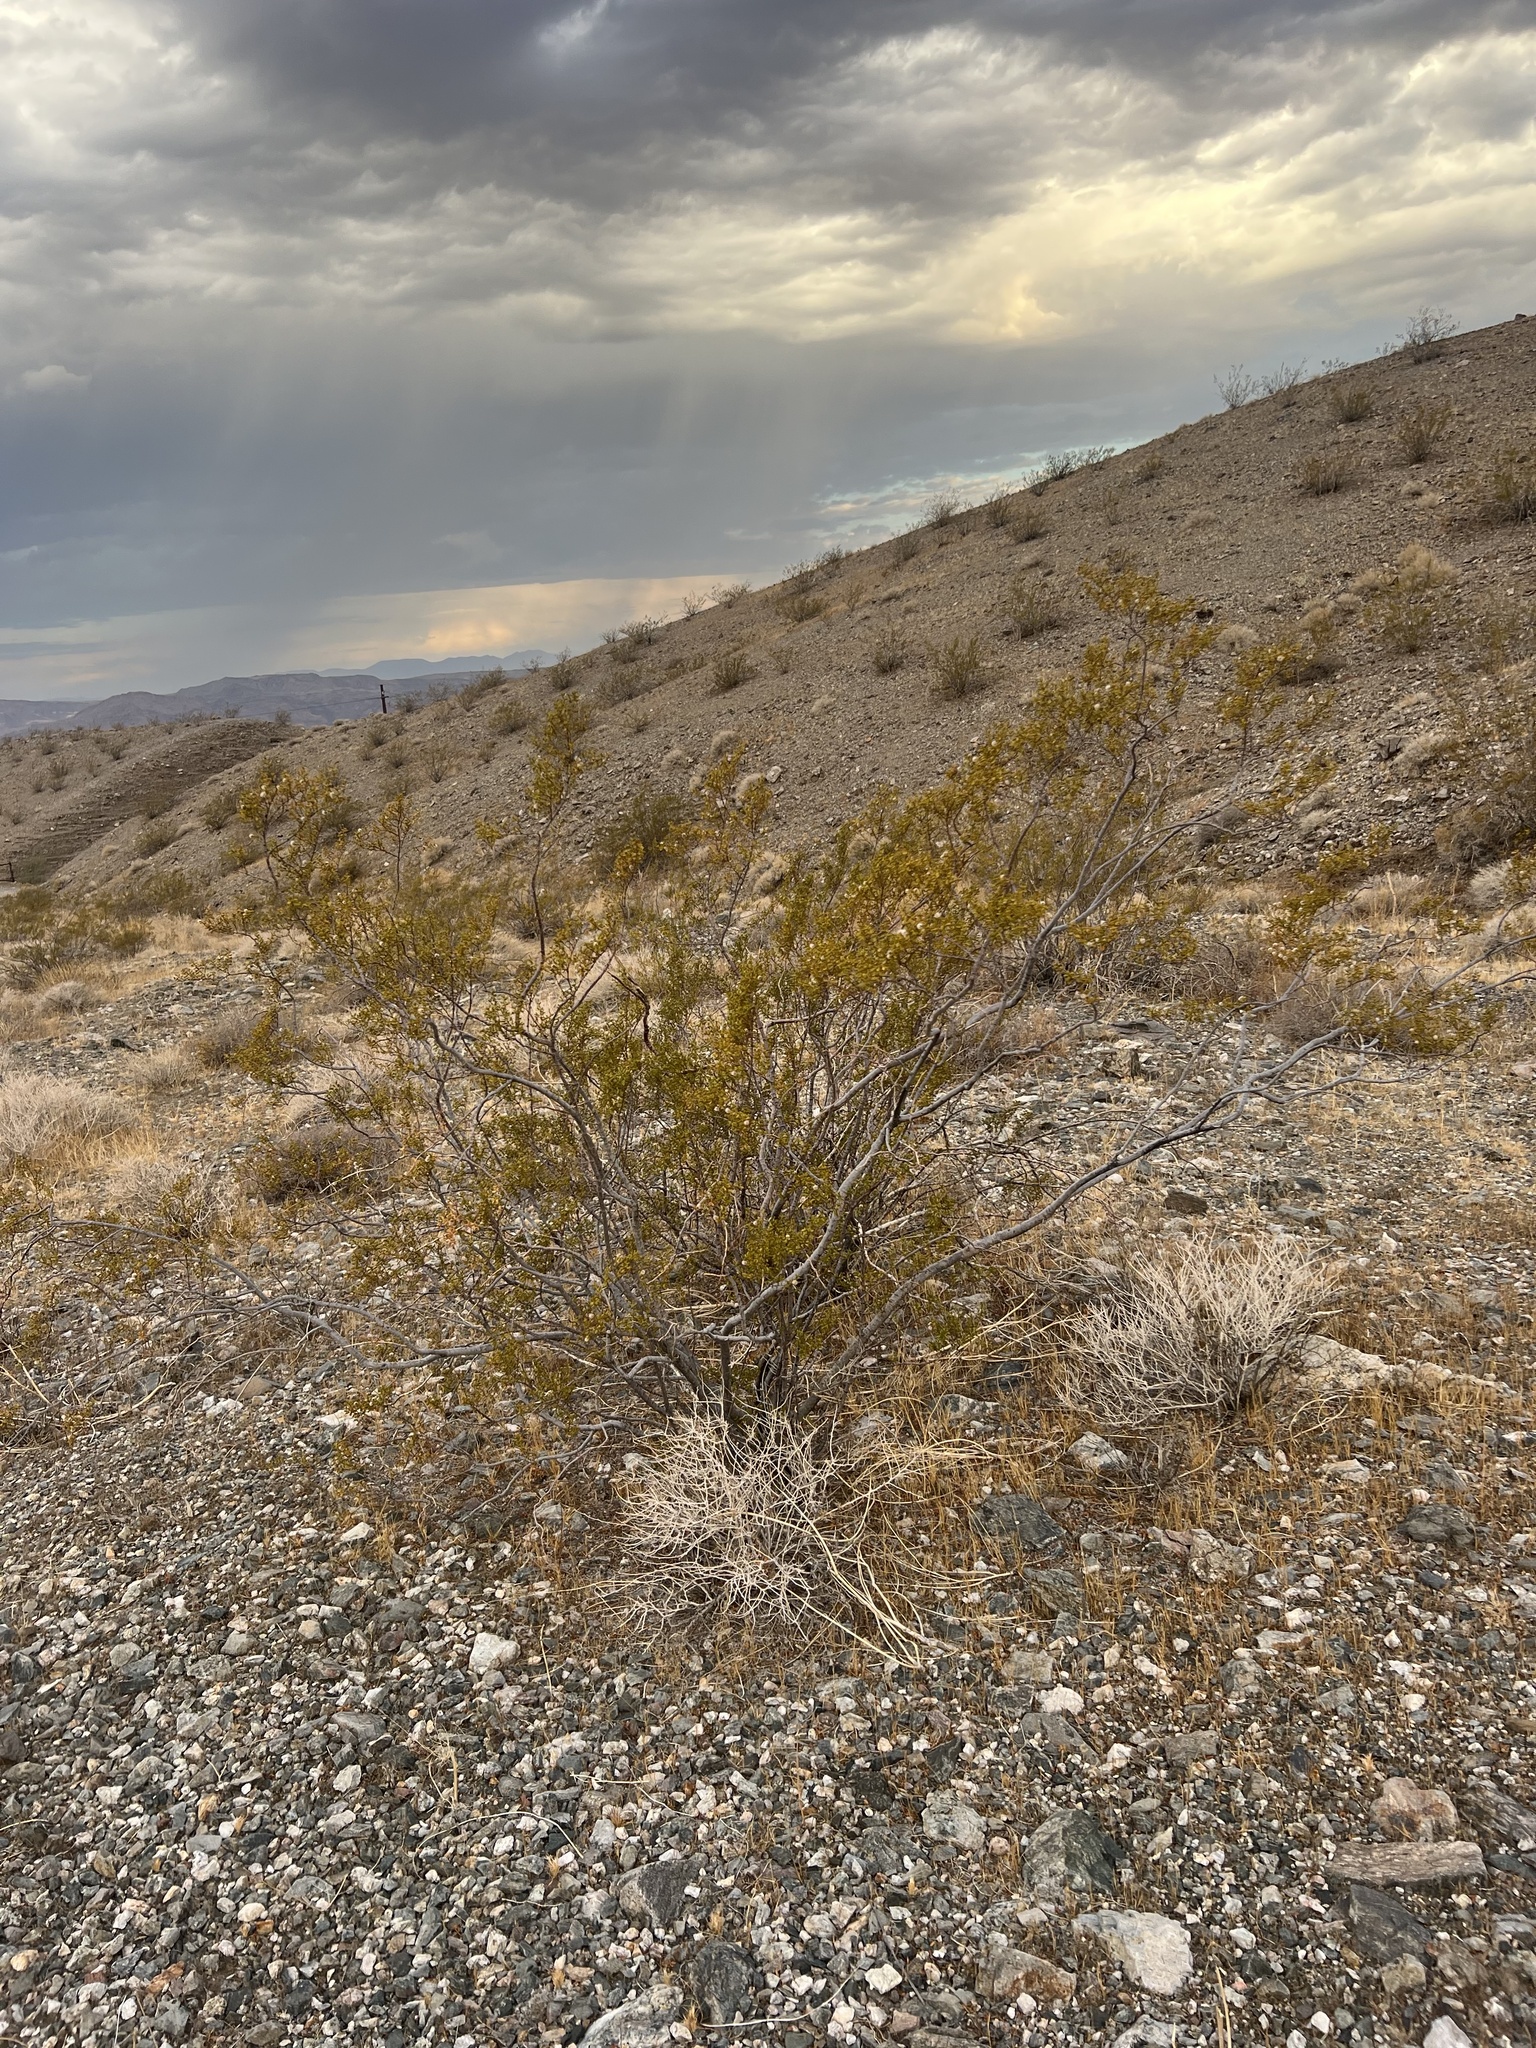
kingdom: Plantae
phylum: Tracheophyta
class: Magnoliopsida
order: Zygophyllales
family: Zygophyllaceae
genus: Larrea
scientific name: Larrea tridentata
